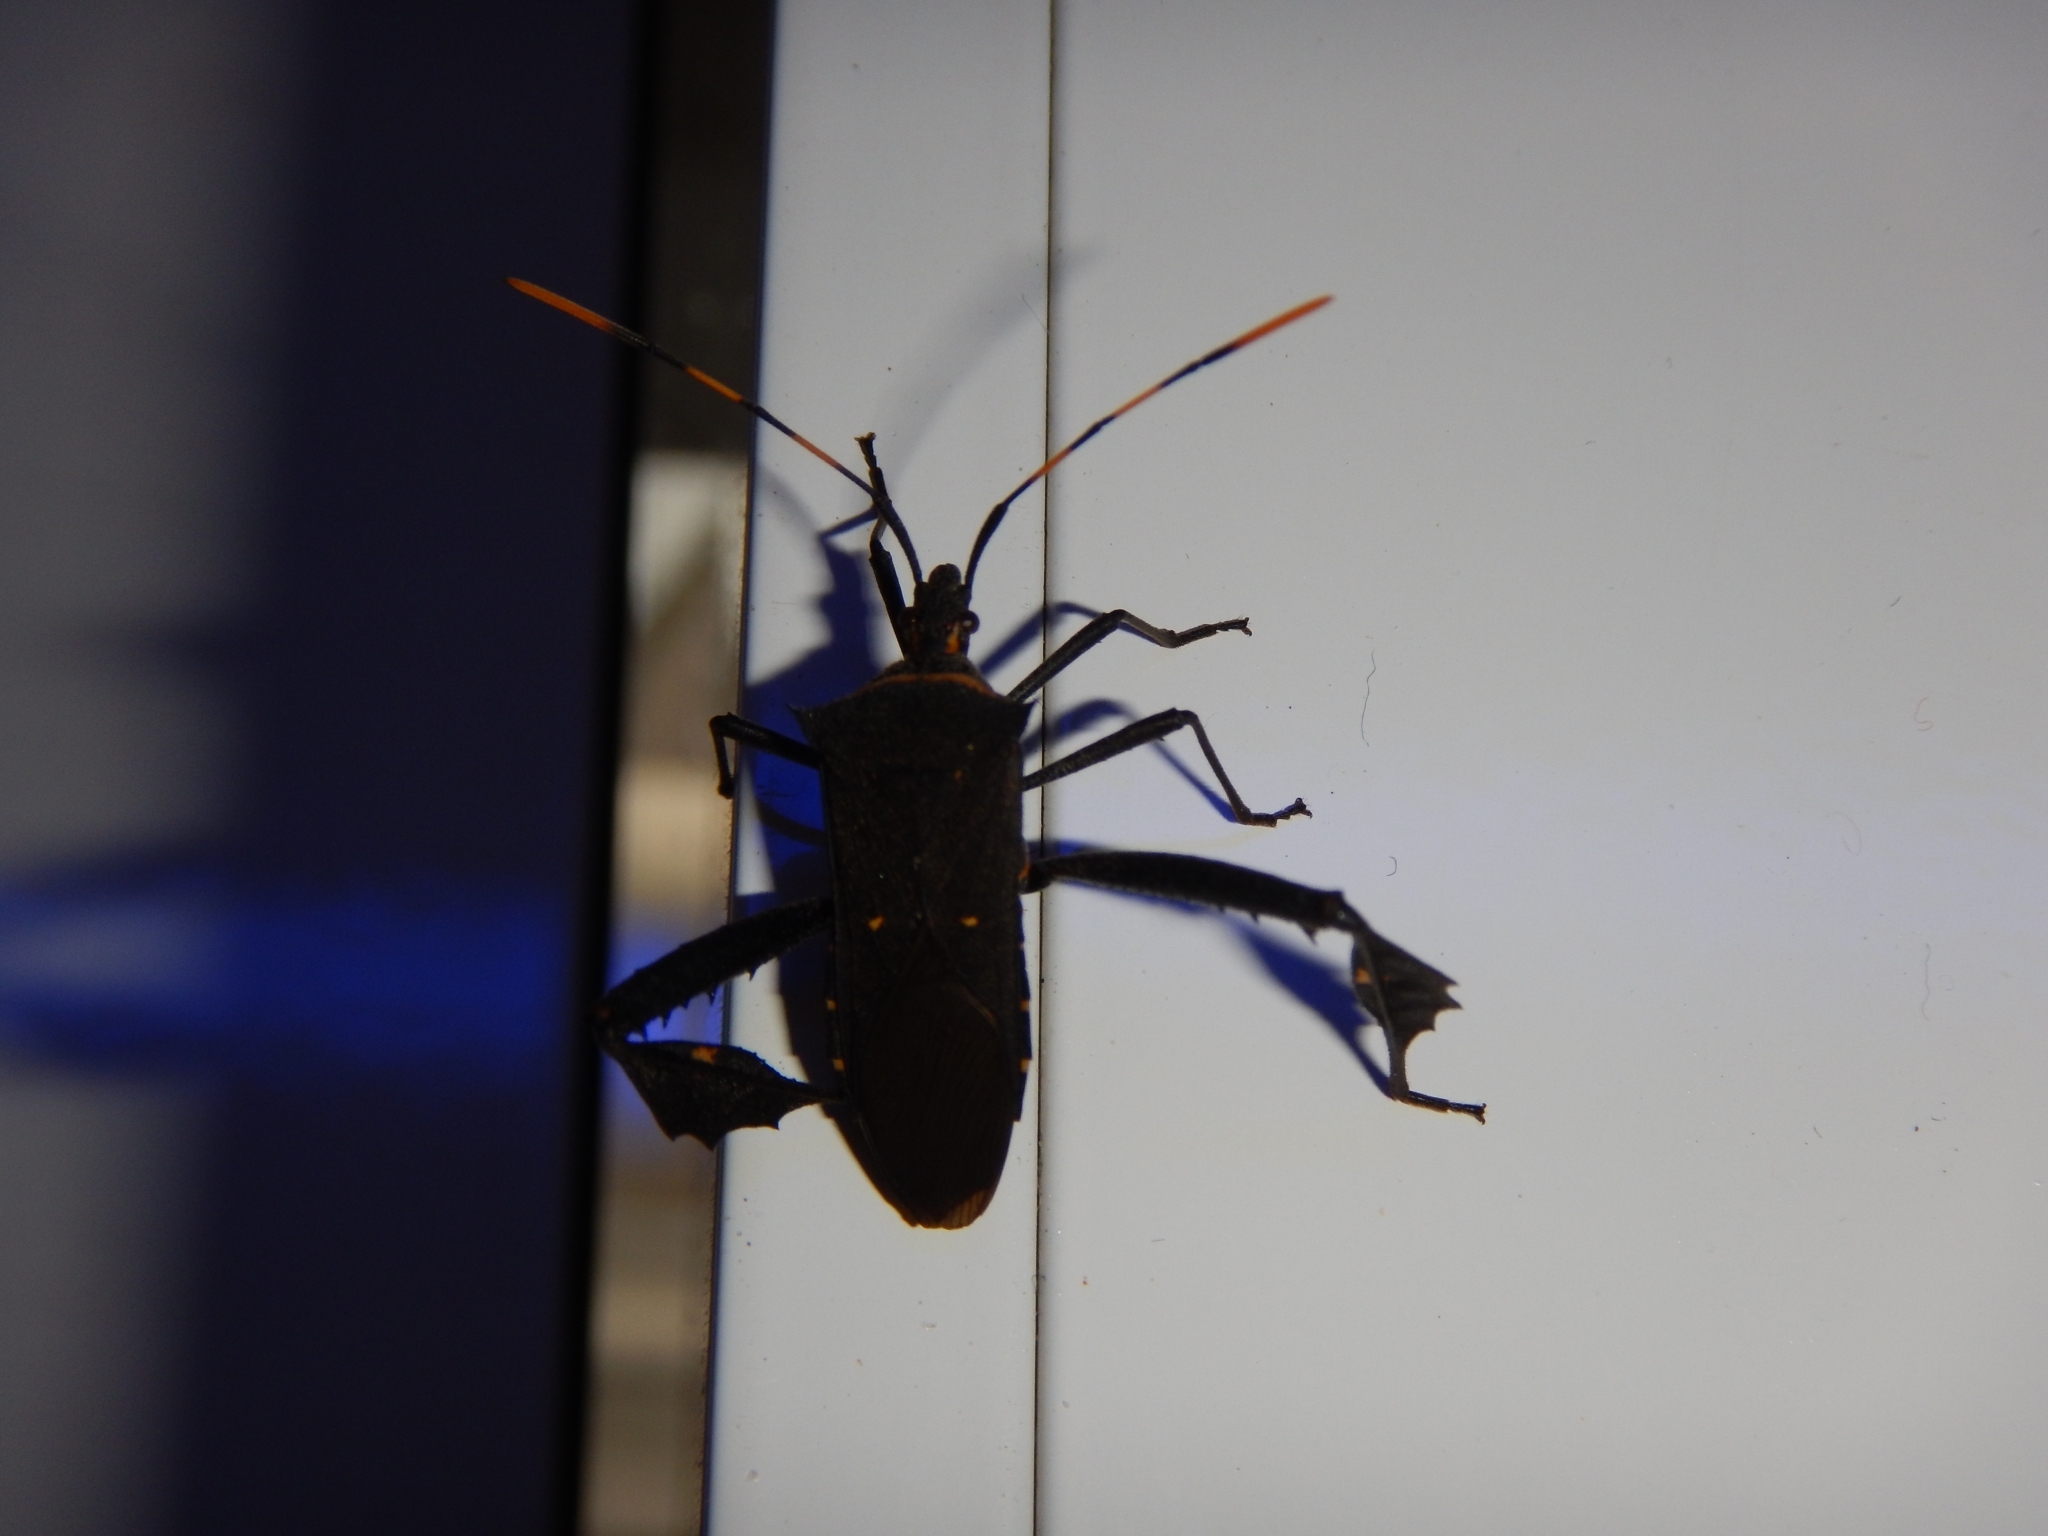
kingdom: Animalia
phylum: Arthropoda
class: Insecta
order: Hemiptera
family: Coreidae
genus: Leptoglossus
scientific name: Leptoglossus gonagra
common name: Citron bug
